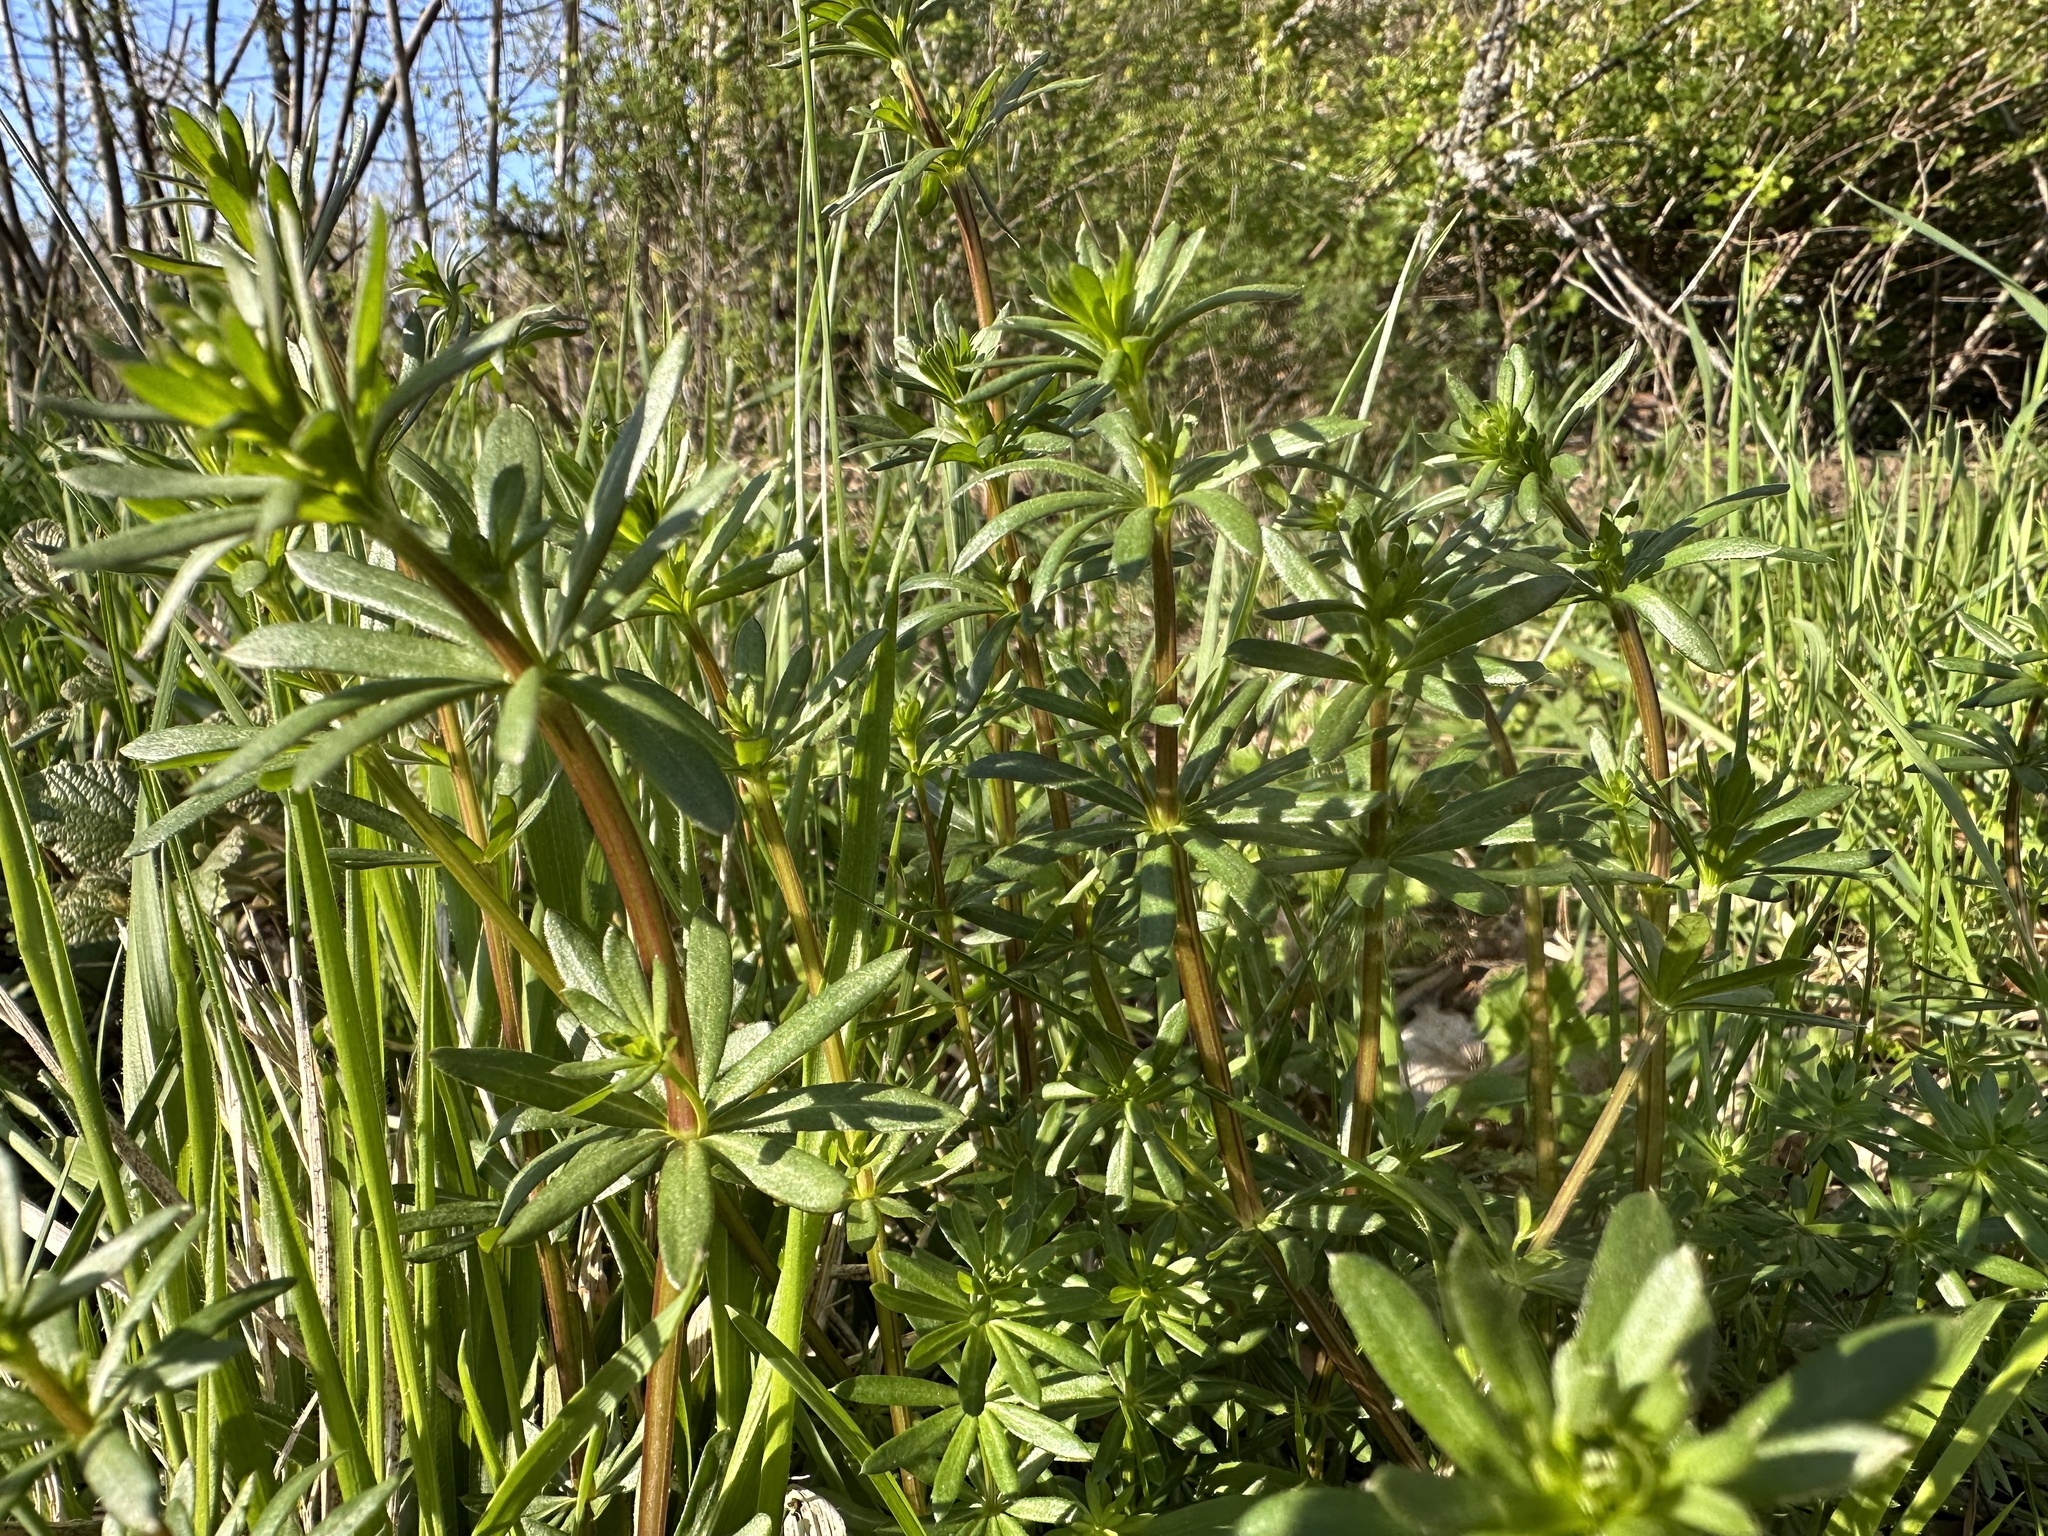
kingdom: Plantae
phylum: Tracheophyta
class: Magnoliopsida
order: Gentianales
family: Rubiaceae
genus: Galium
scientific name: Galium mollugo
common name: Hedge bedstraw
